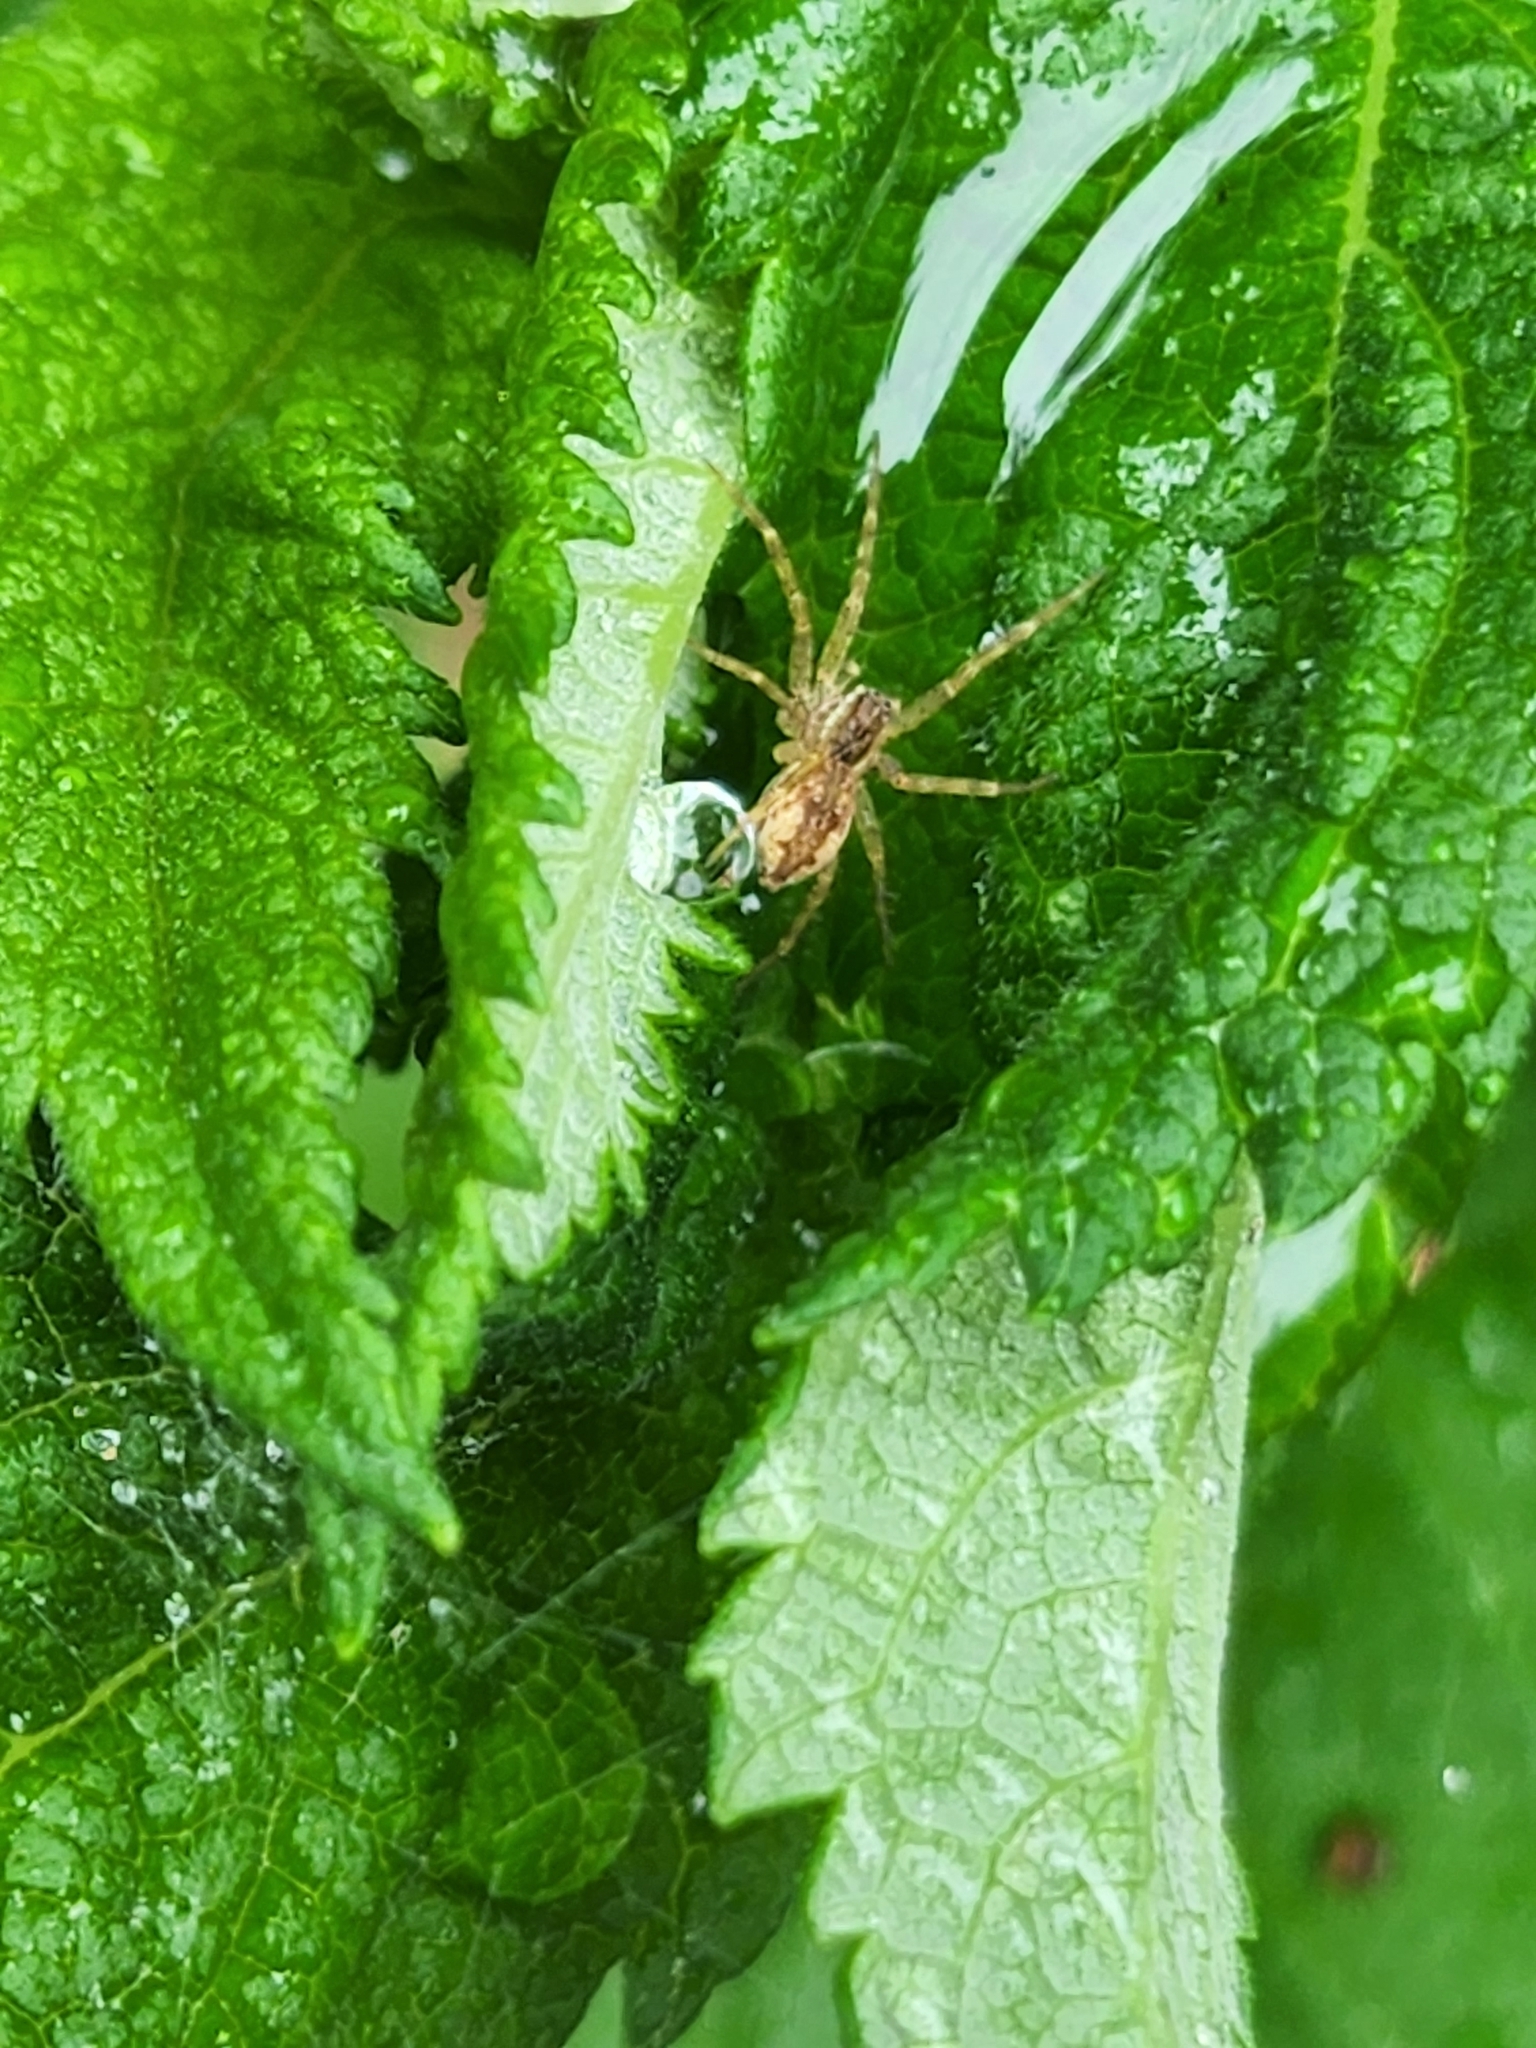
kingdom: Animalia
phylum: Arthropoda
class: Arachnida
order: Araneae
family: Pisauridae
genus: Dolomedes
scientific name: Dolomedes okefinokensis
